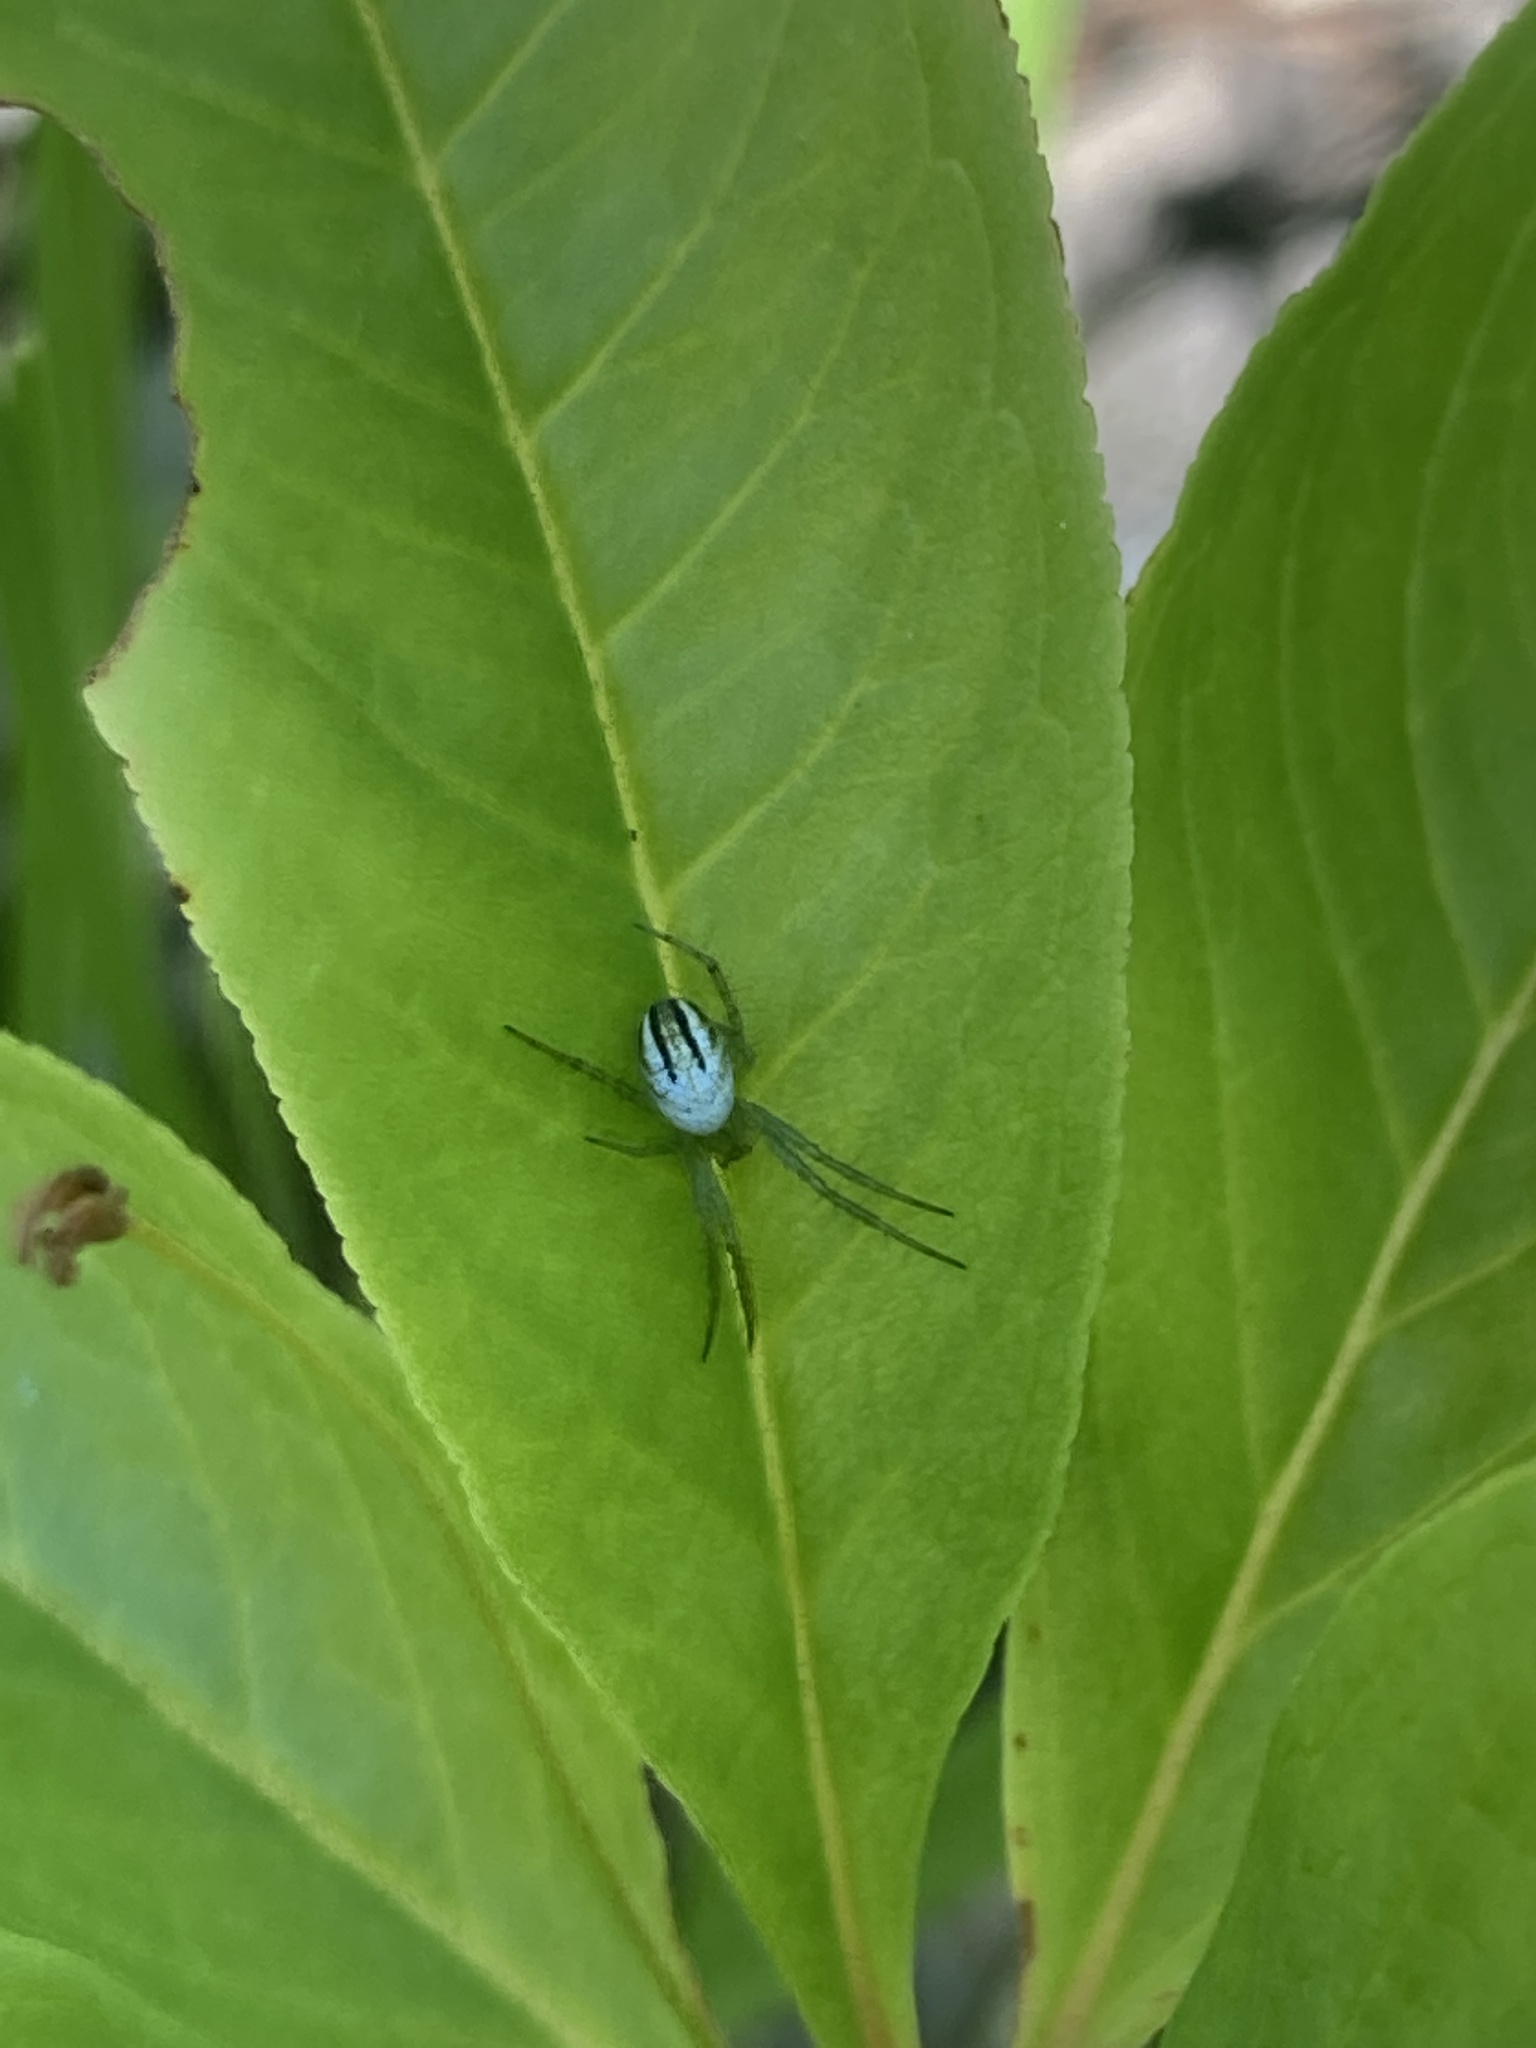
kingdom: Animalia
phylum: Arthropoda
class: Arachnida
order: Araneae
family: Araneidae
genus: Mangora
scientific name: Mangora gibberosa
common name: Lined orbweaver
